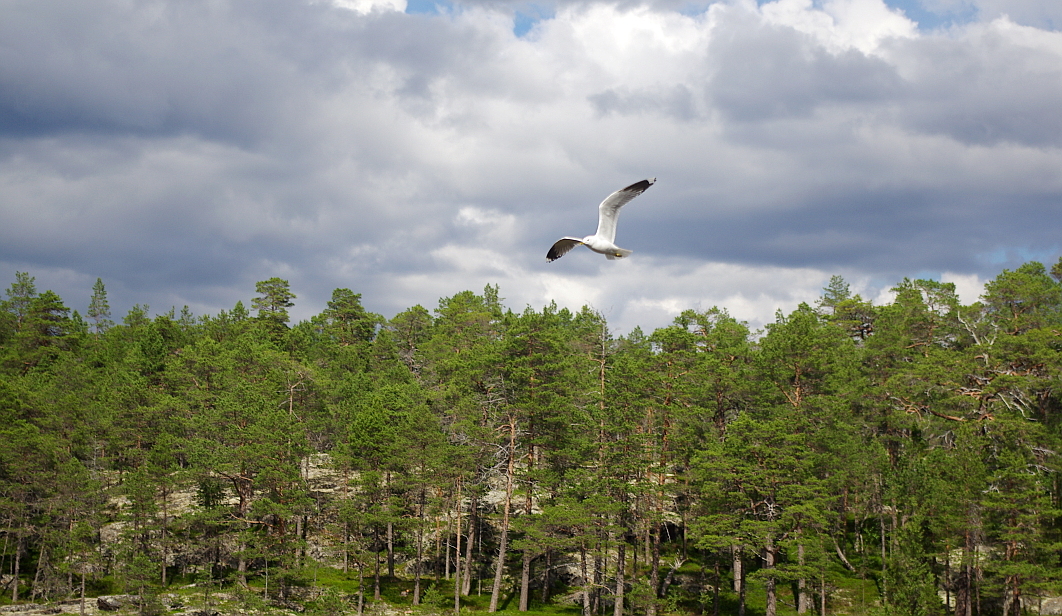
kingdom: Plantae
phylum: Tracheophyta
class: Pinopsida
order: Pinales
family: Pinaceae
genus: Pinus
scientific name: Pinus sylvestris
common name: Scots pine
